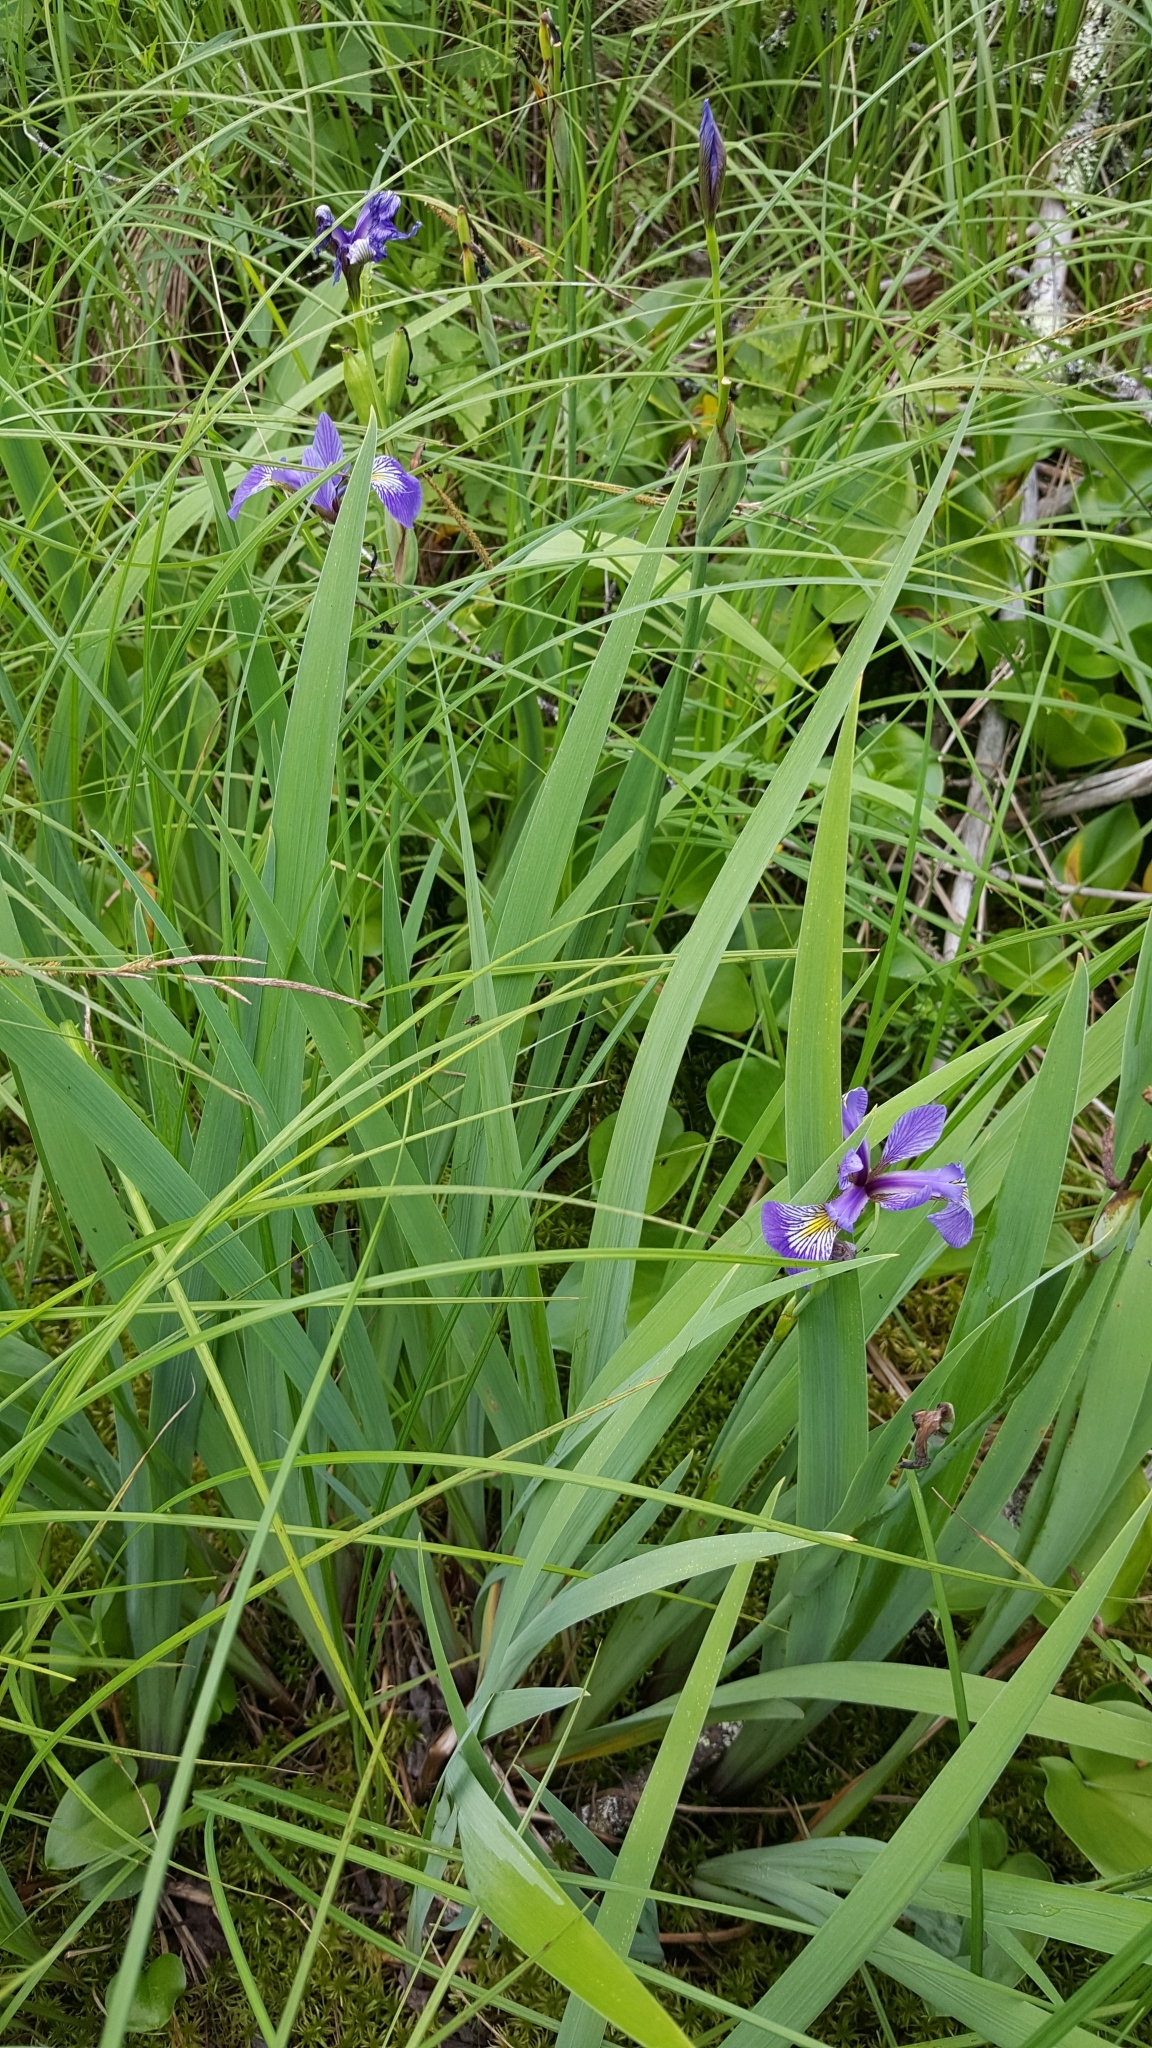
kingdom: Plantae
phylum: Tracheophyta
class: Liliopsida
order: Asparagales
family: Iridaceae
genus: Iris
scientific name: Iris versicolor
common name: Purple iris
